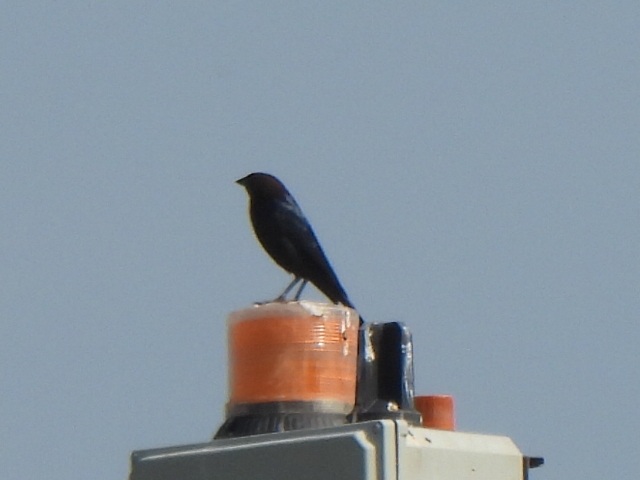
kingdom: Animalia
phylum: Chordata
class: Aves
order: Passeriformes
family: Icteridae
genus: Molothrus
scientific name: Molothrus ater
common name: Brown-headed cowbird
